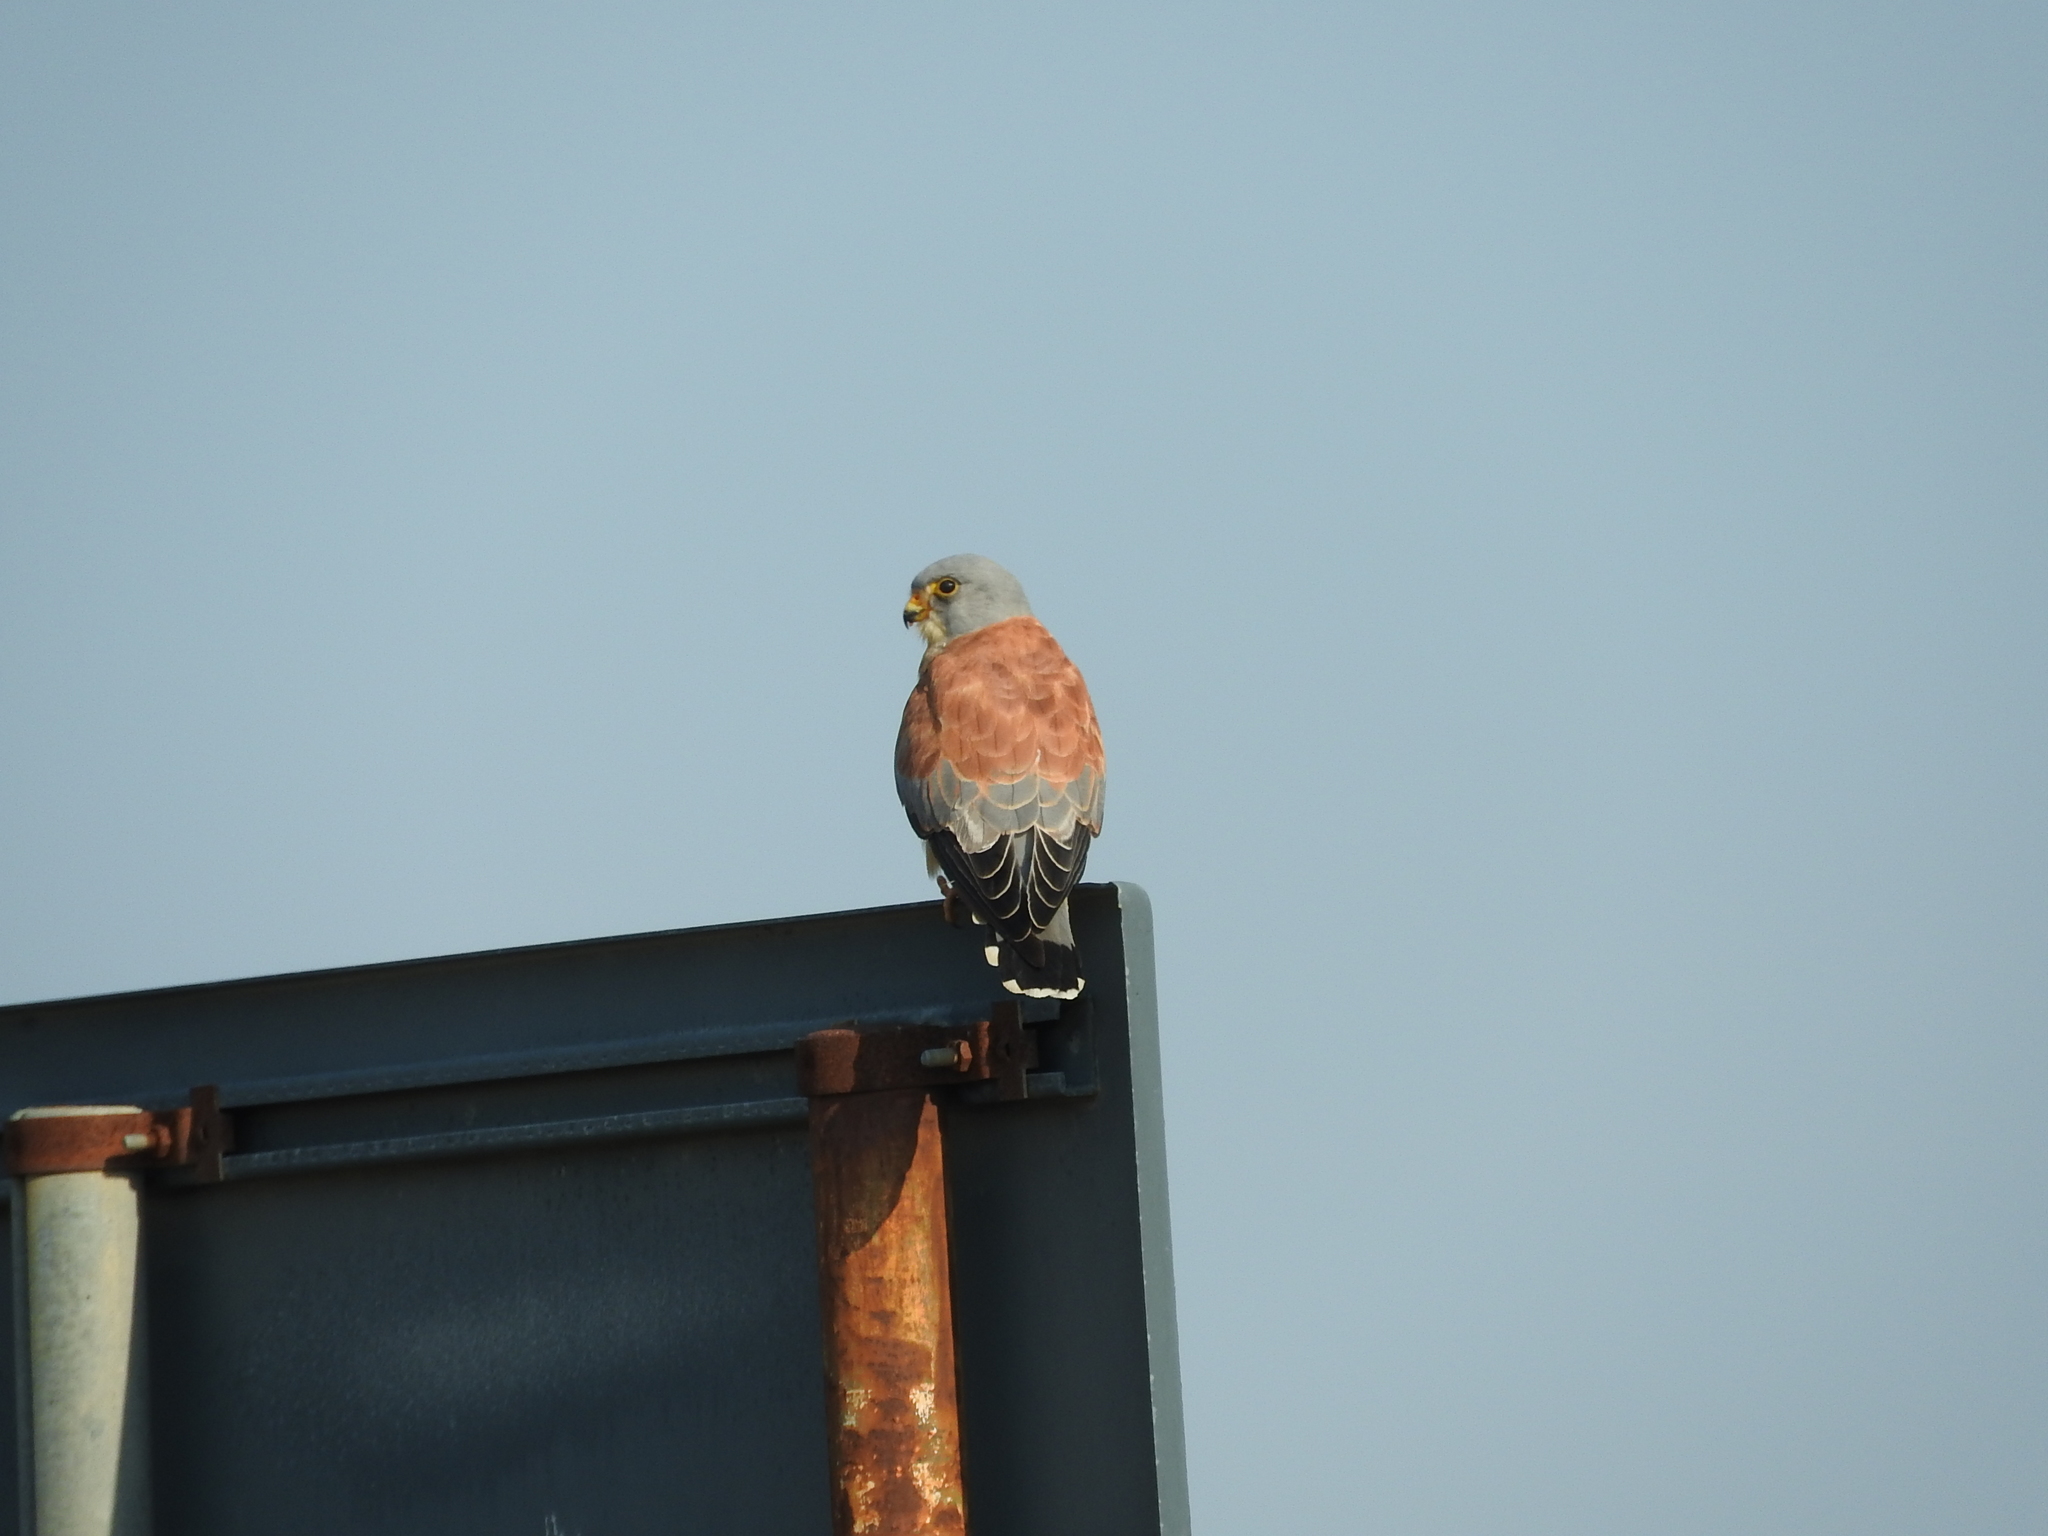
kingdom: Animalia
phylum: Chordata
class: Aves
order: Falconiformes
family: Falconidae
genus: Falco
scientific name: Falco naumanni
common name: Lesser kestrel
